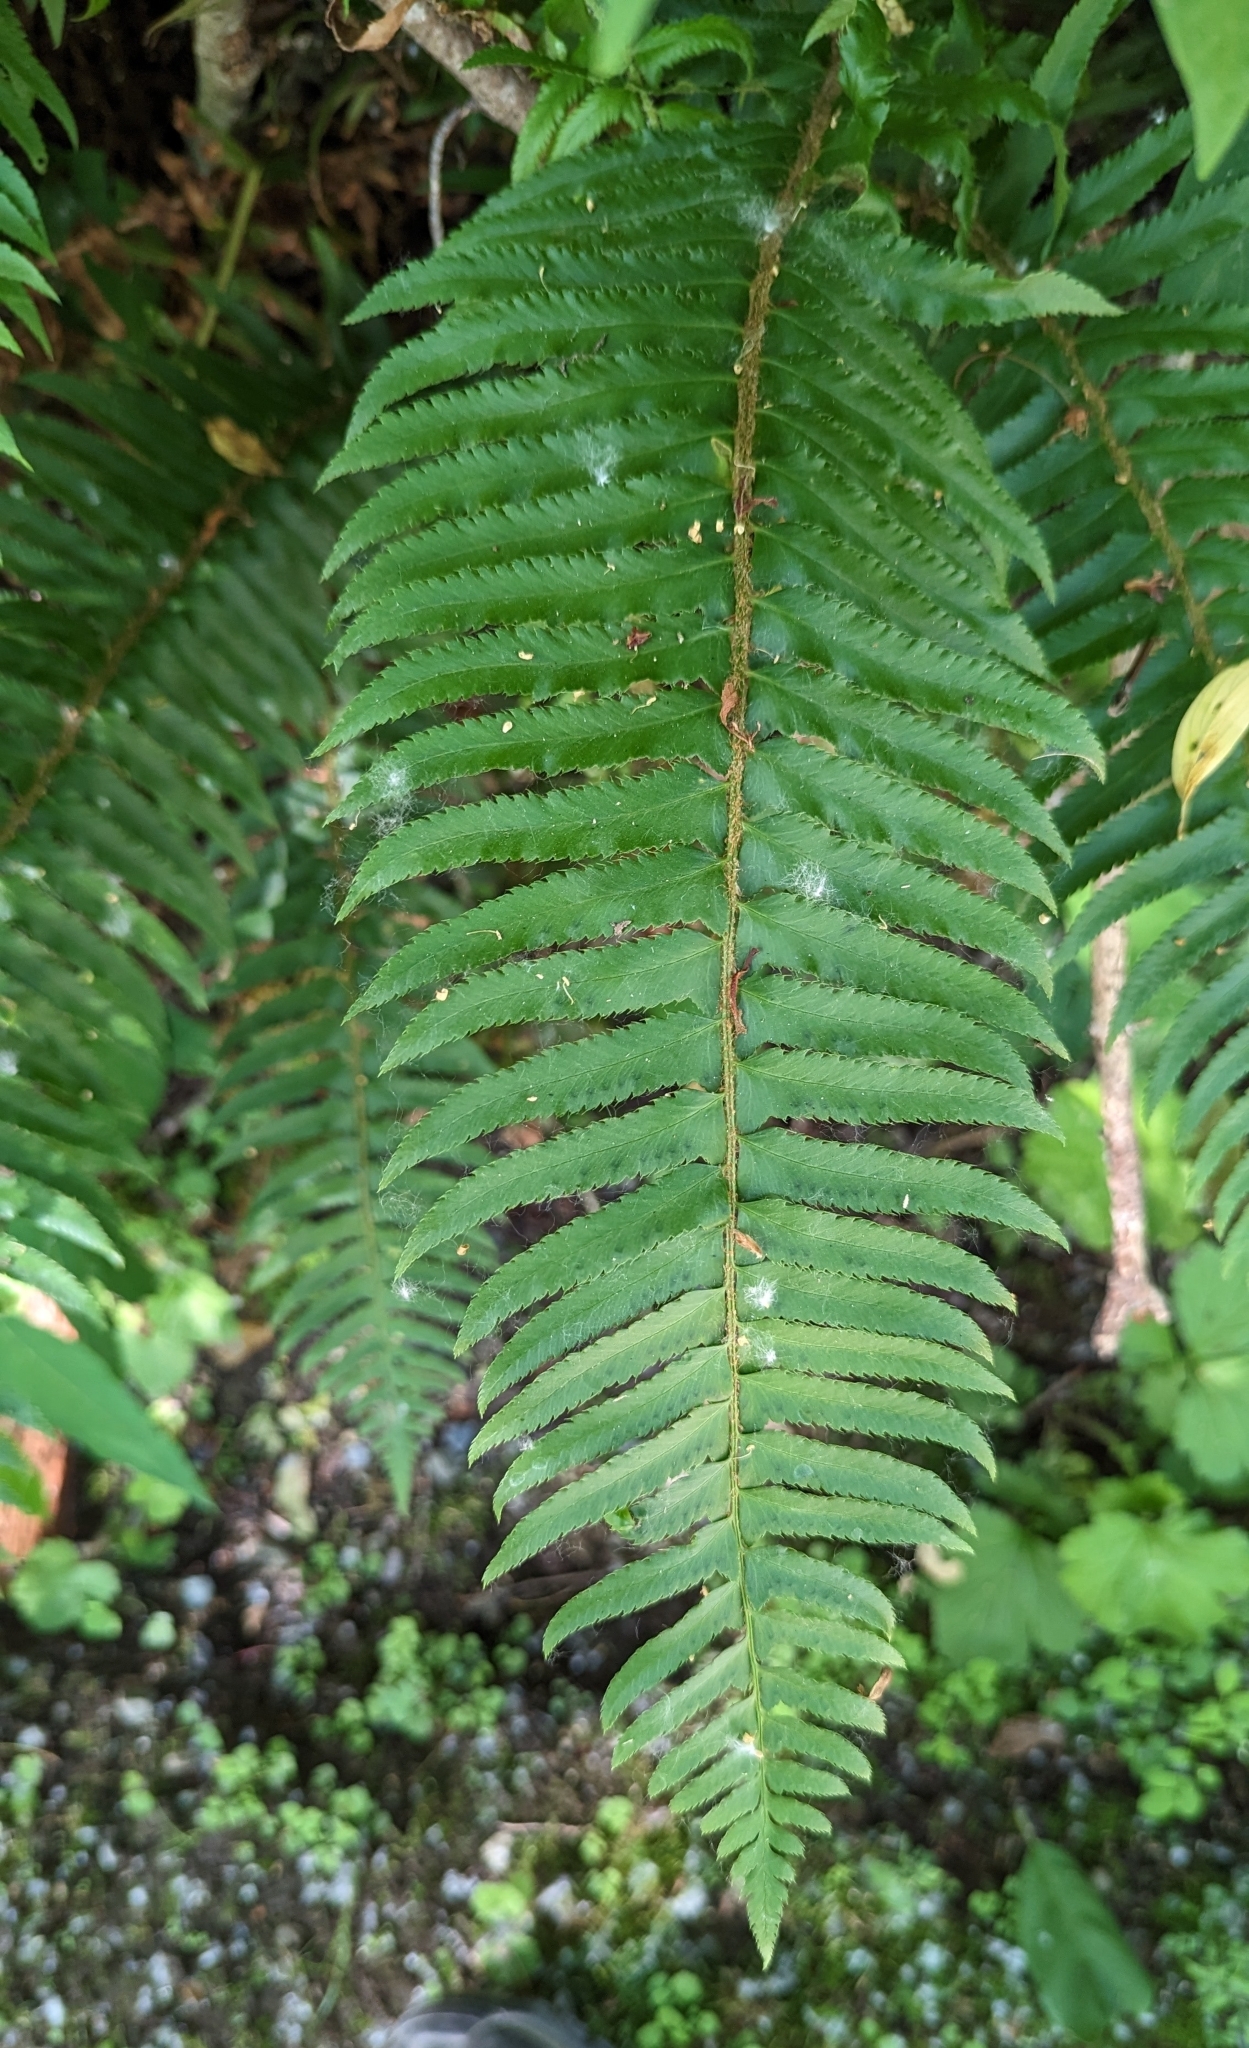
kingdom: Plantae
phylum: Tracheophyta
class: Polypodiopsida
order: Polypodiales
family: Dryopteridaceae
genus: Polystichum
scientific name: Polystichum munitum
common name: Western sword-fern
